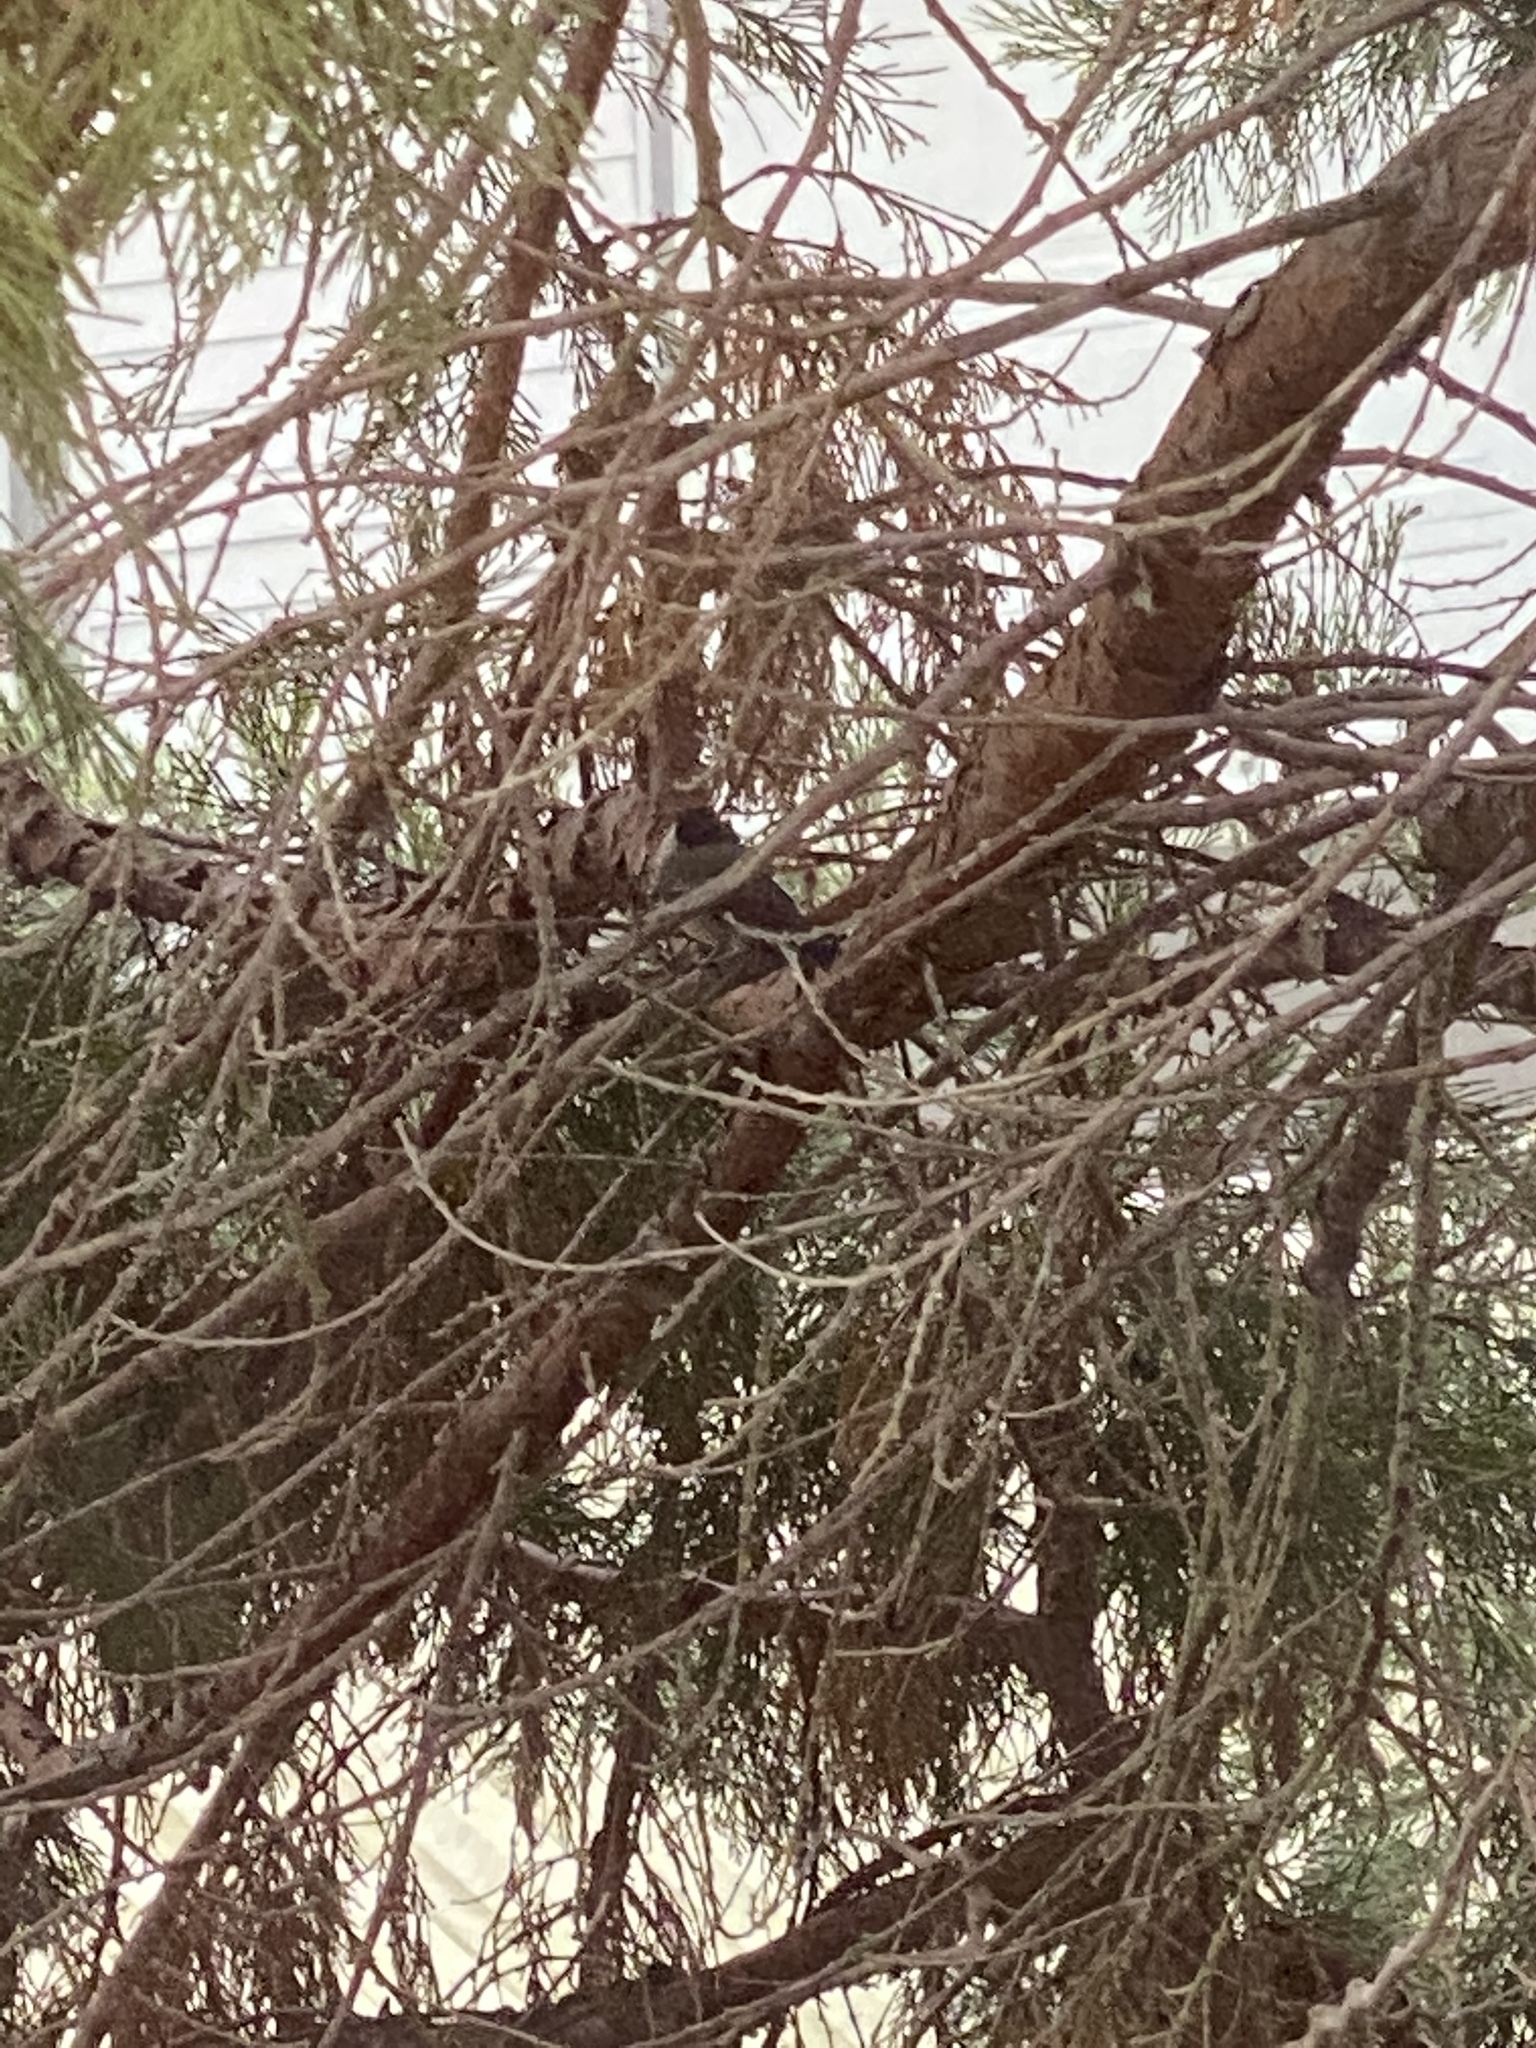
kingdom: Animalia
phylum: Chordata
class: Aves
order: Passeriformes
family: Paridae
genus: Poecile
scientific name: Poecile atricapillus
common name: Black-capped chickadee
